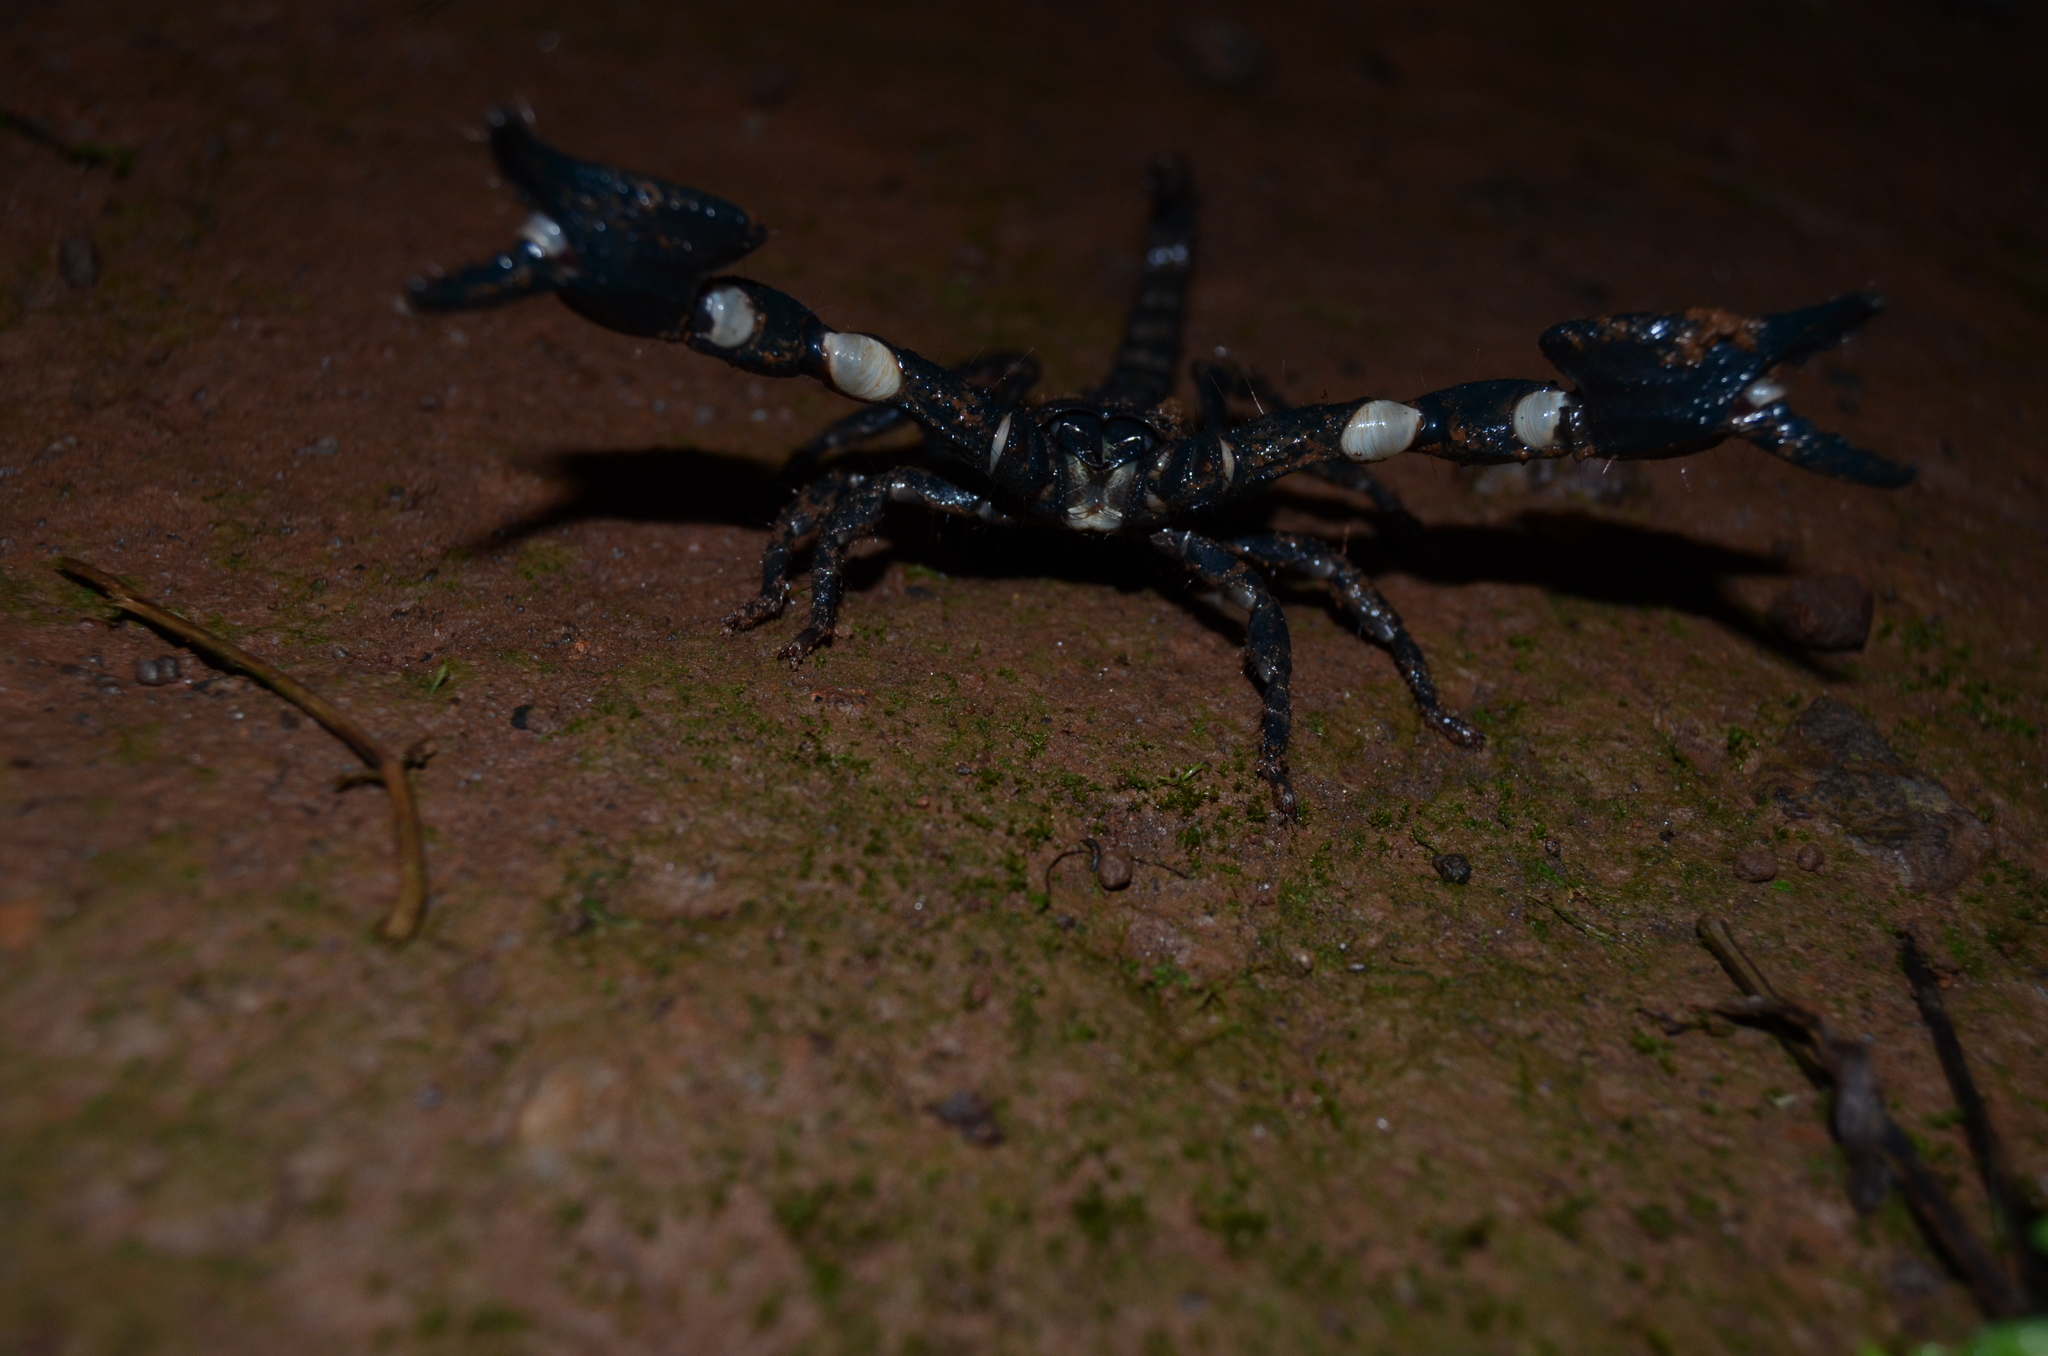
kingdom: Animalia
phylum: Arthropoda
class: Arachnida
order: Scorpiones
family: Scorpionidae
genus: Sahyadrimetrus
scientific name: Sahyadrimetrus scaber
